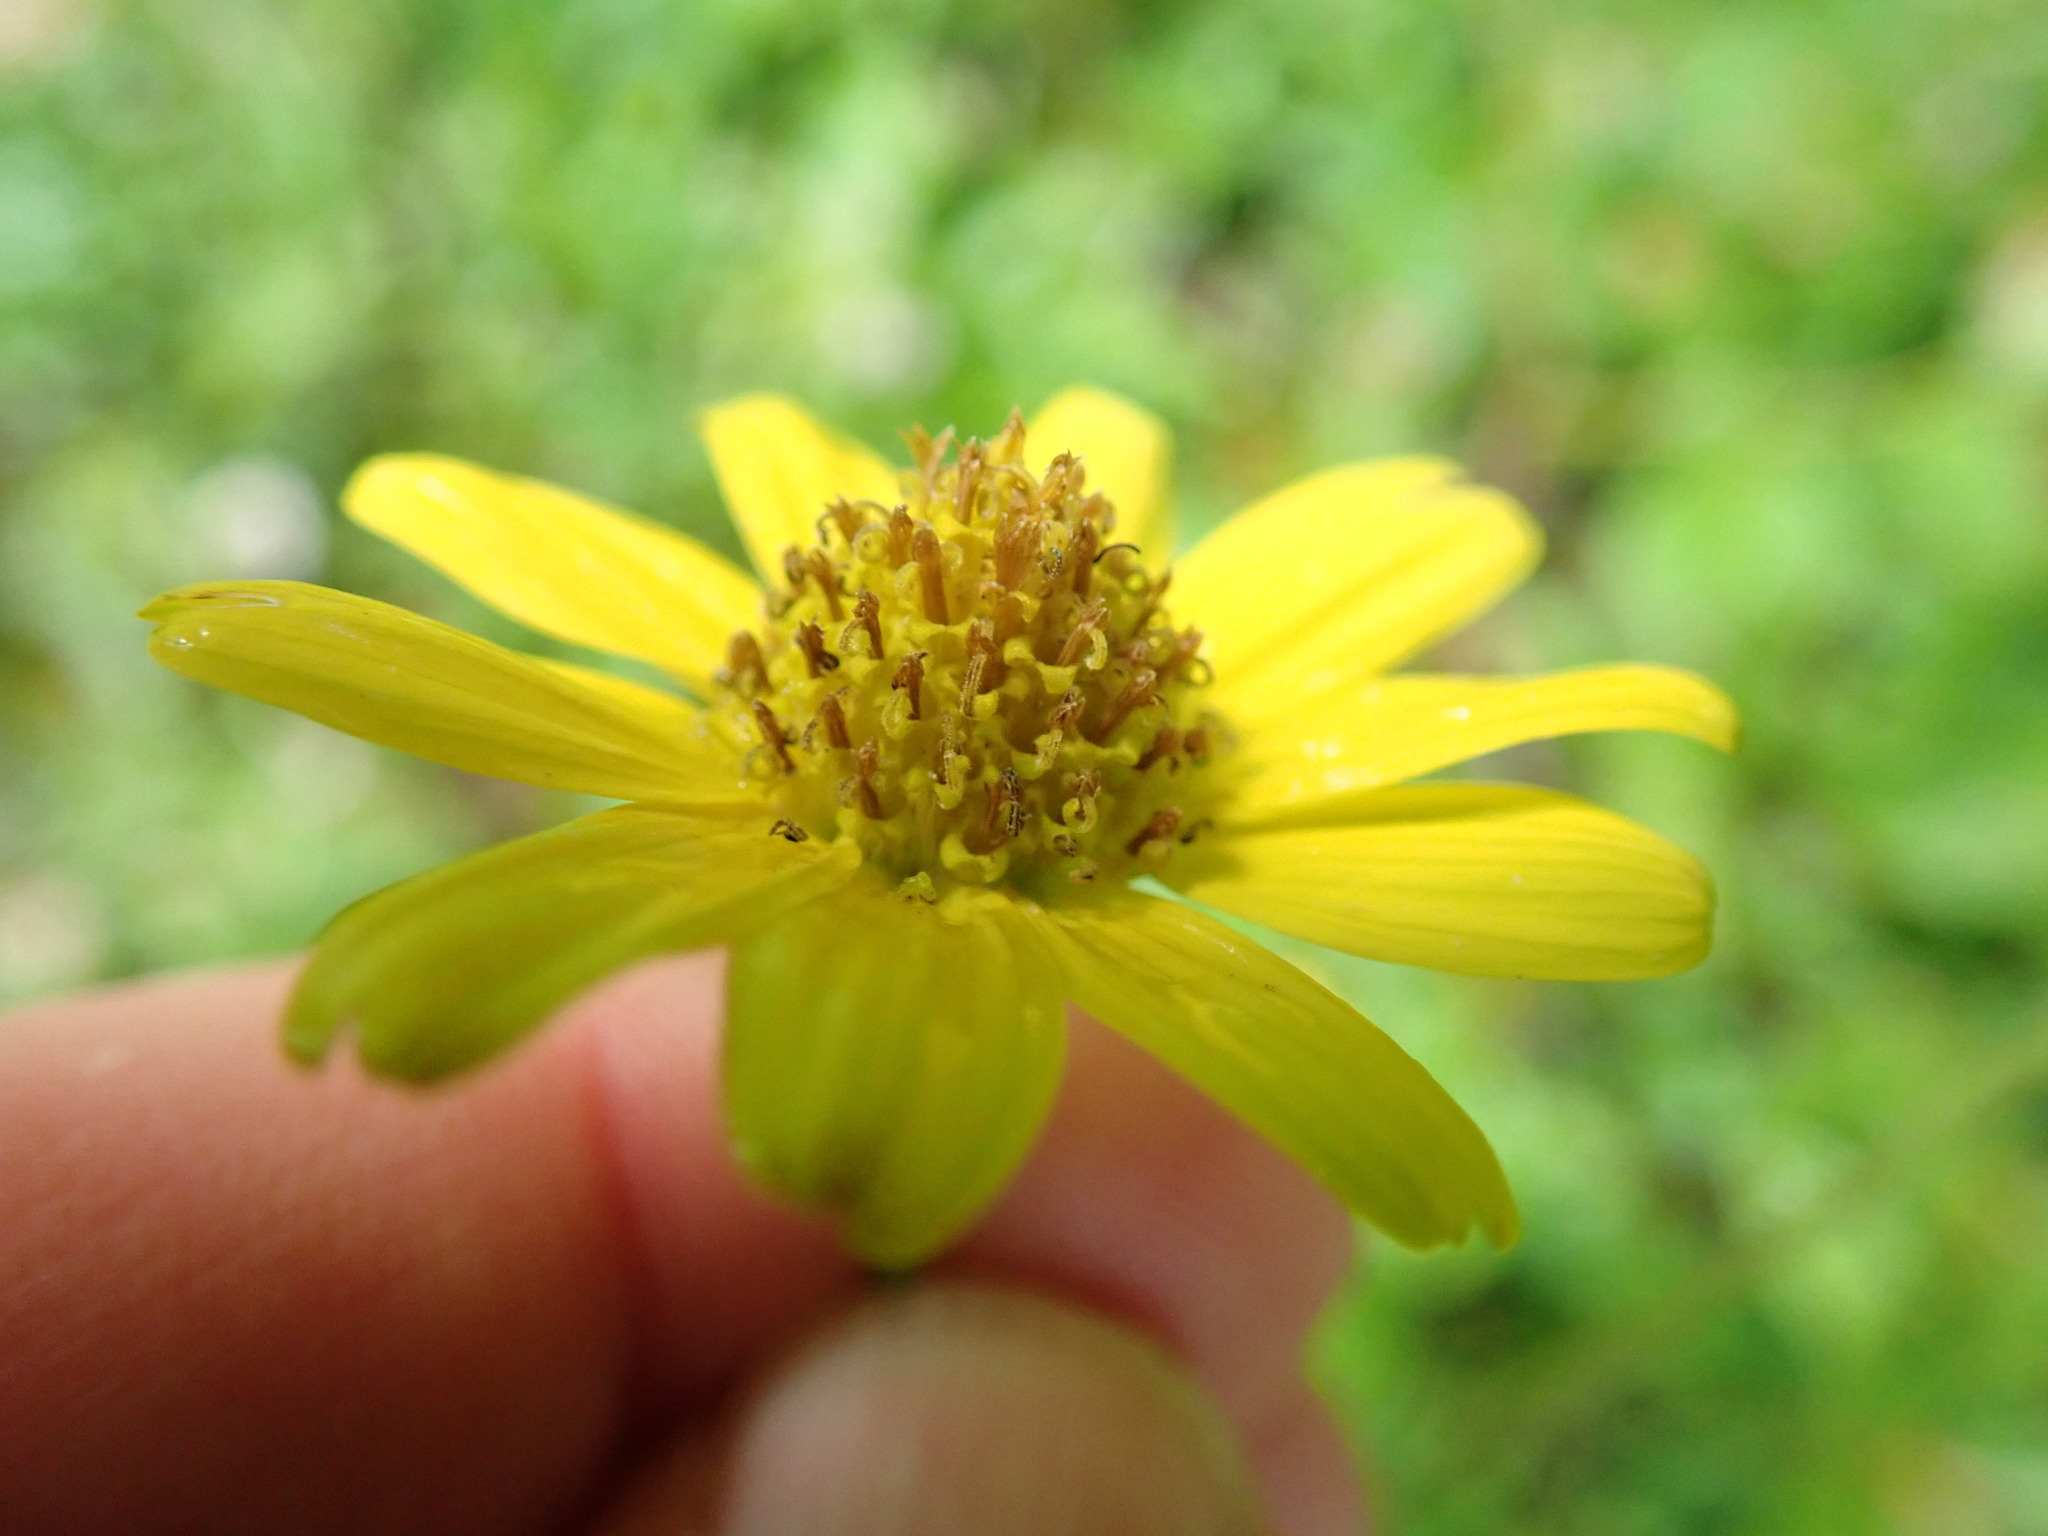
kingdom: Plantae
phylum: Tracheophyta
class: Magnoliopsida
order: Asterales
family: Asteraceae
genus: Arnica
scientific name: Arnica latifolia
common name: Arnica
